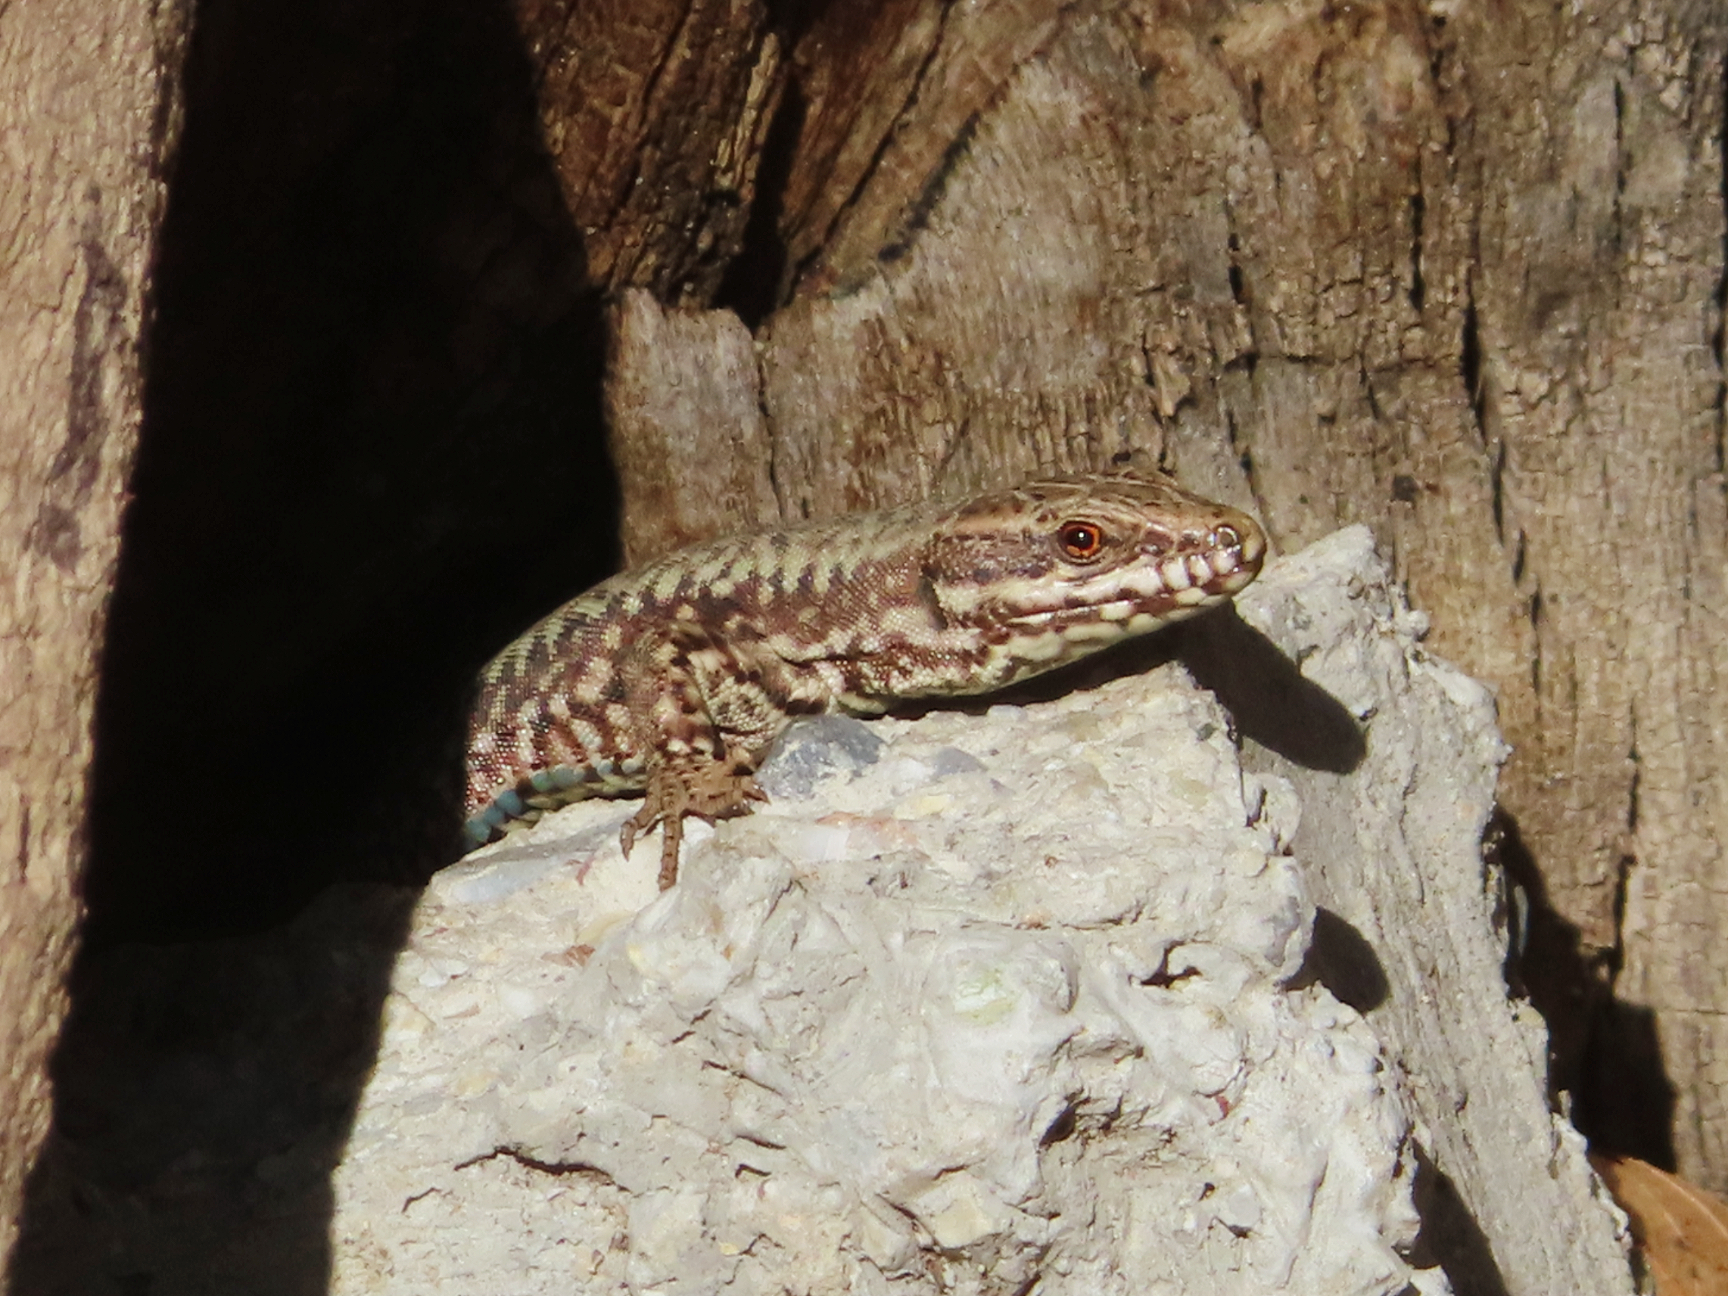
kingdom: Animalia
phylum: Chordata
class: Squamata
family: Lacertidae
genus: Podarcis
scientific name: Podarcis muralis
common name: Common wall lizard
